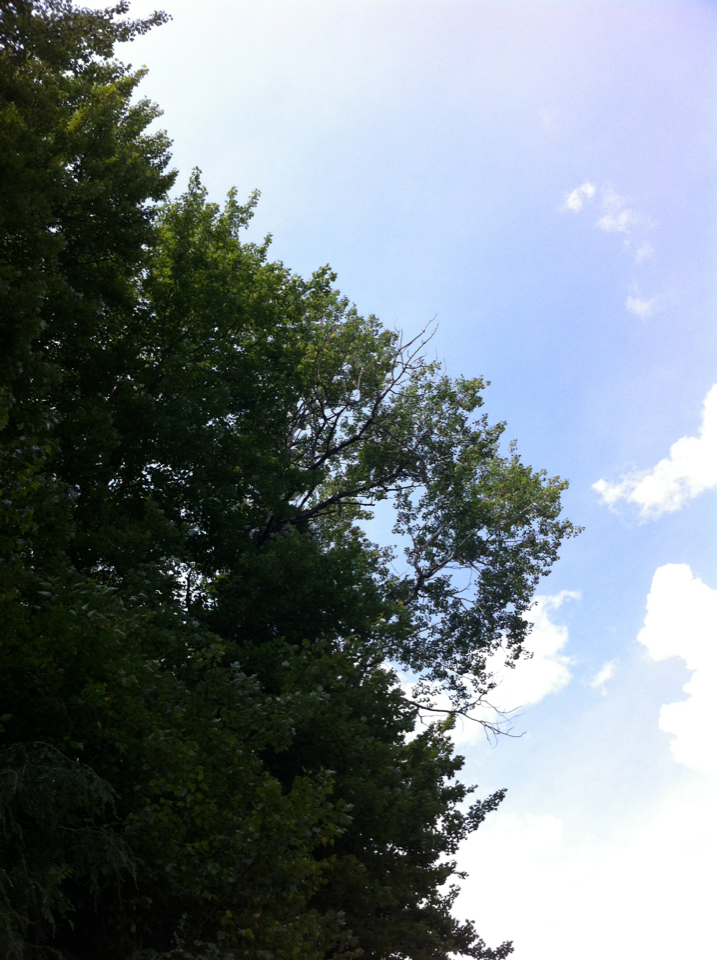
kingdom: Plantae
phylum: Tracheophyta
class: Magnoliopsida
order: Malpighiales
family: Salicaceae
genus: Populus
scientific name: Populus tremuloides
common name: Quaking aspen
